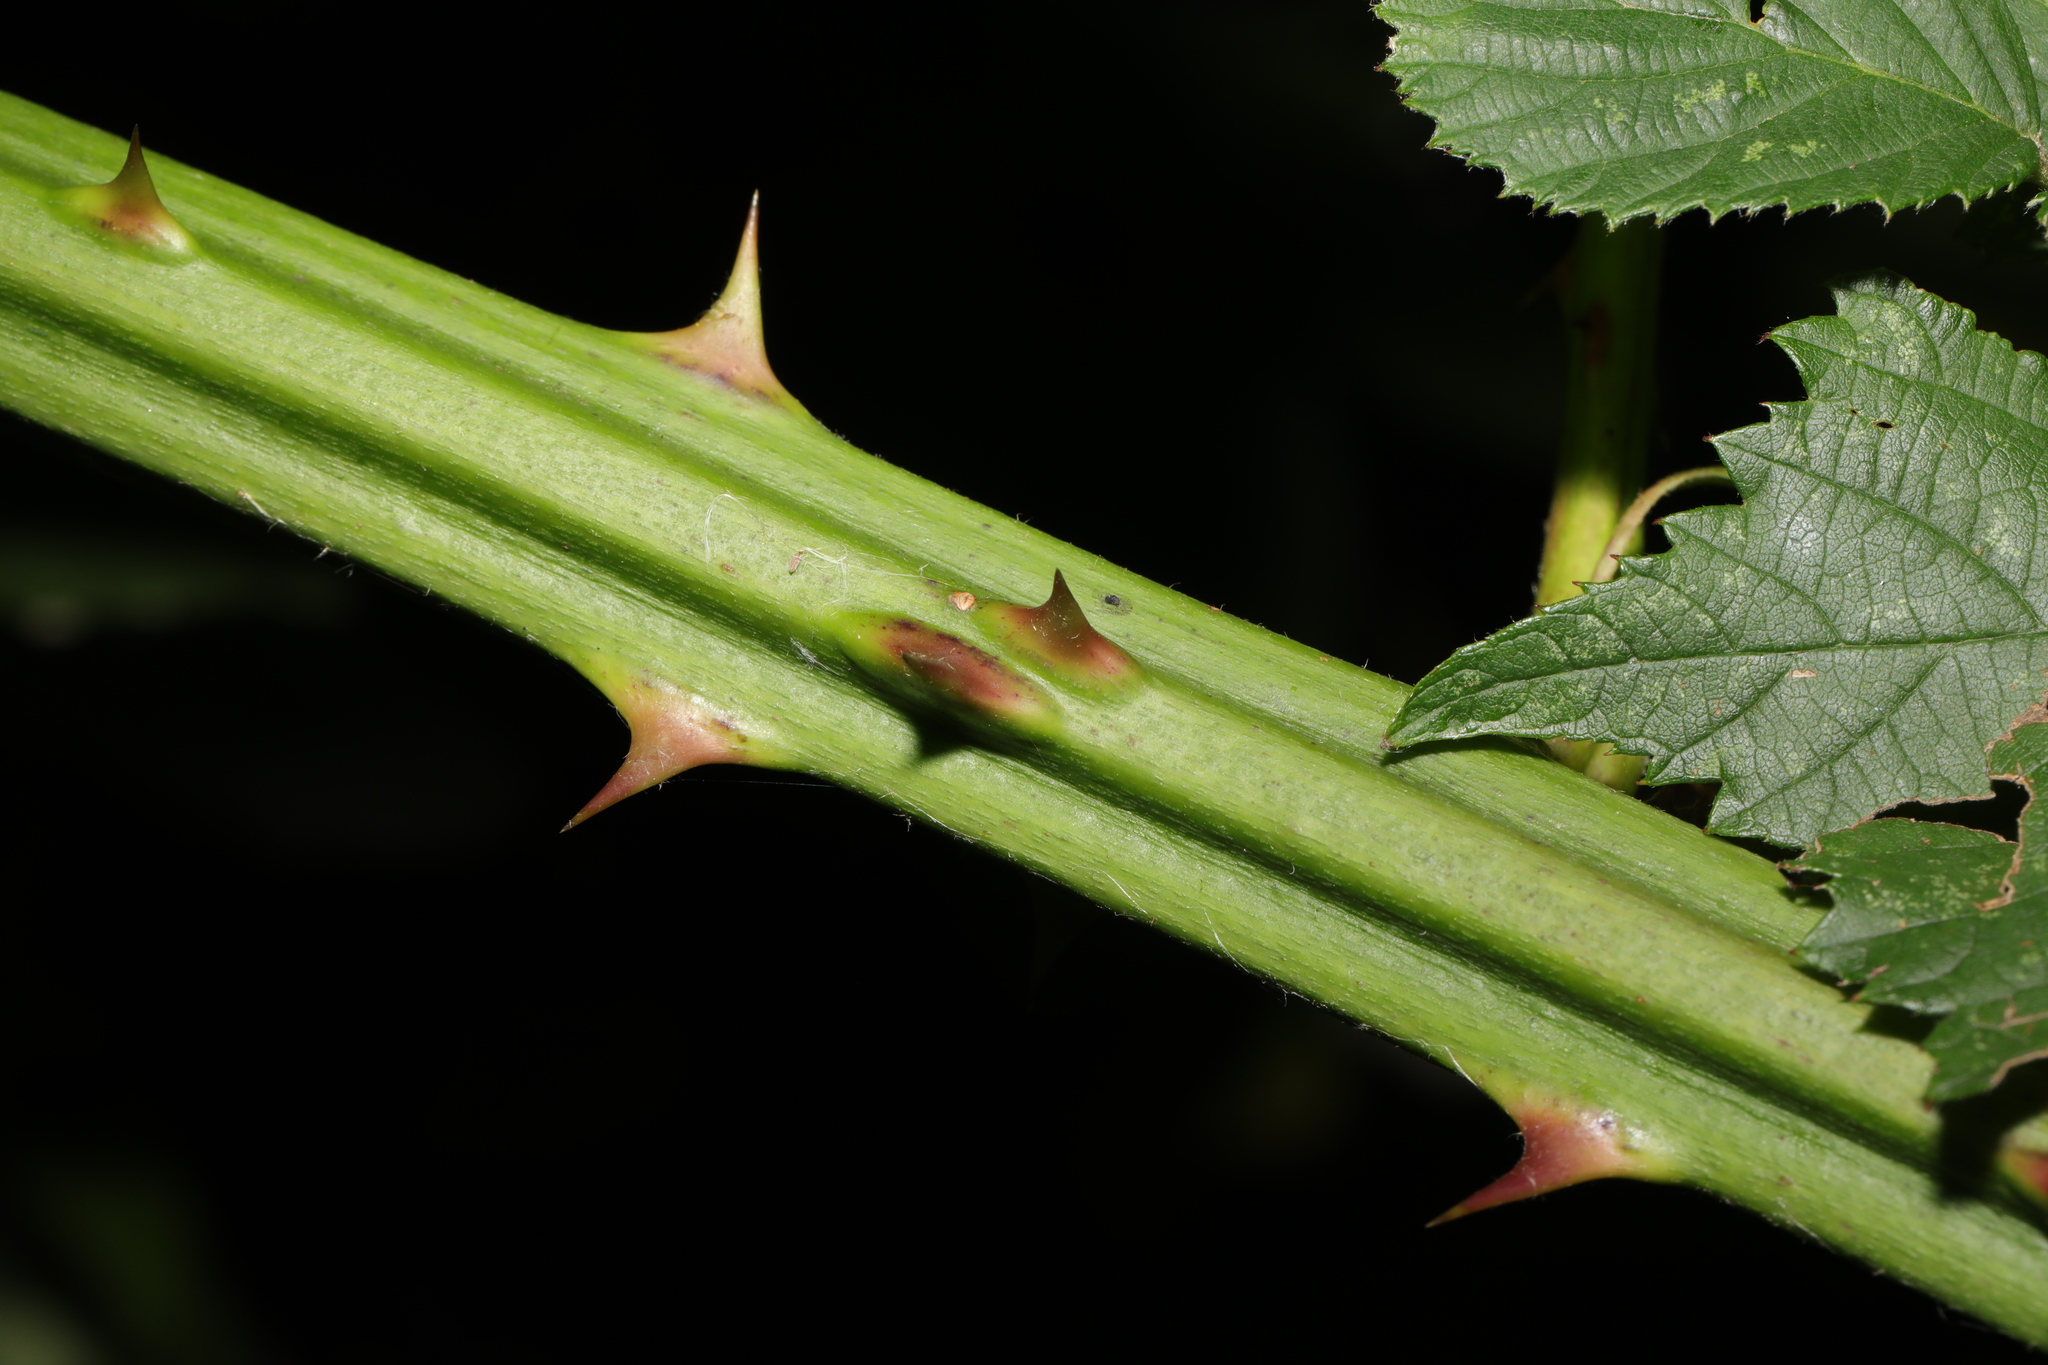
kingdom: Plantae
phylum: Tracheophyta
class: Magnoliopsida
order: Rosales
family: Rosaceae
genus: Rubus
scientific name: Rubus armeniacus
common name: Himalayan blackberry
